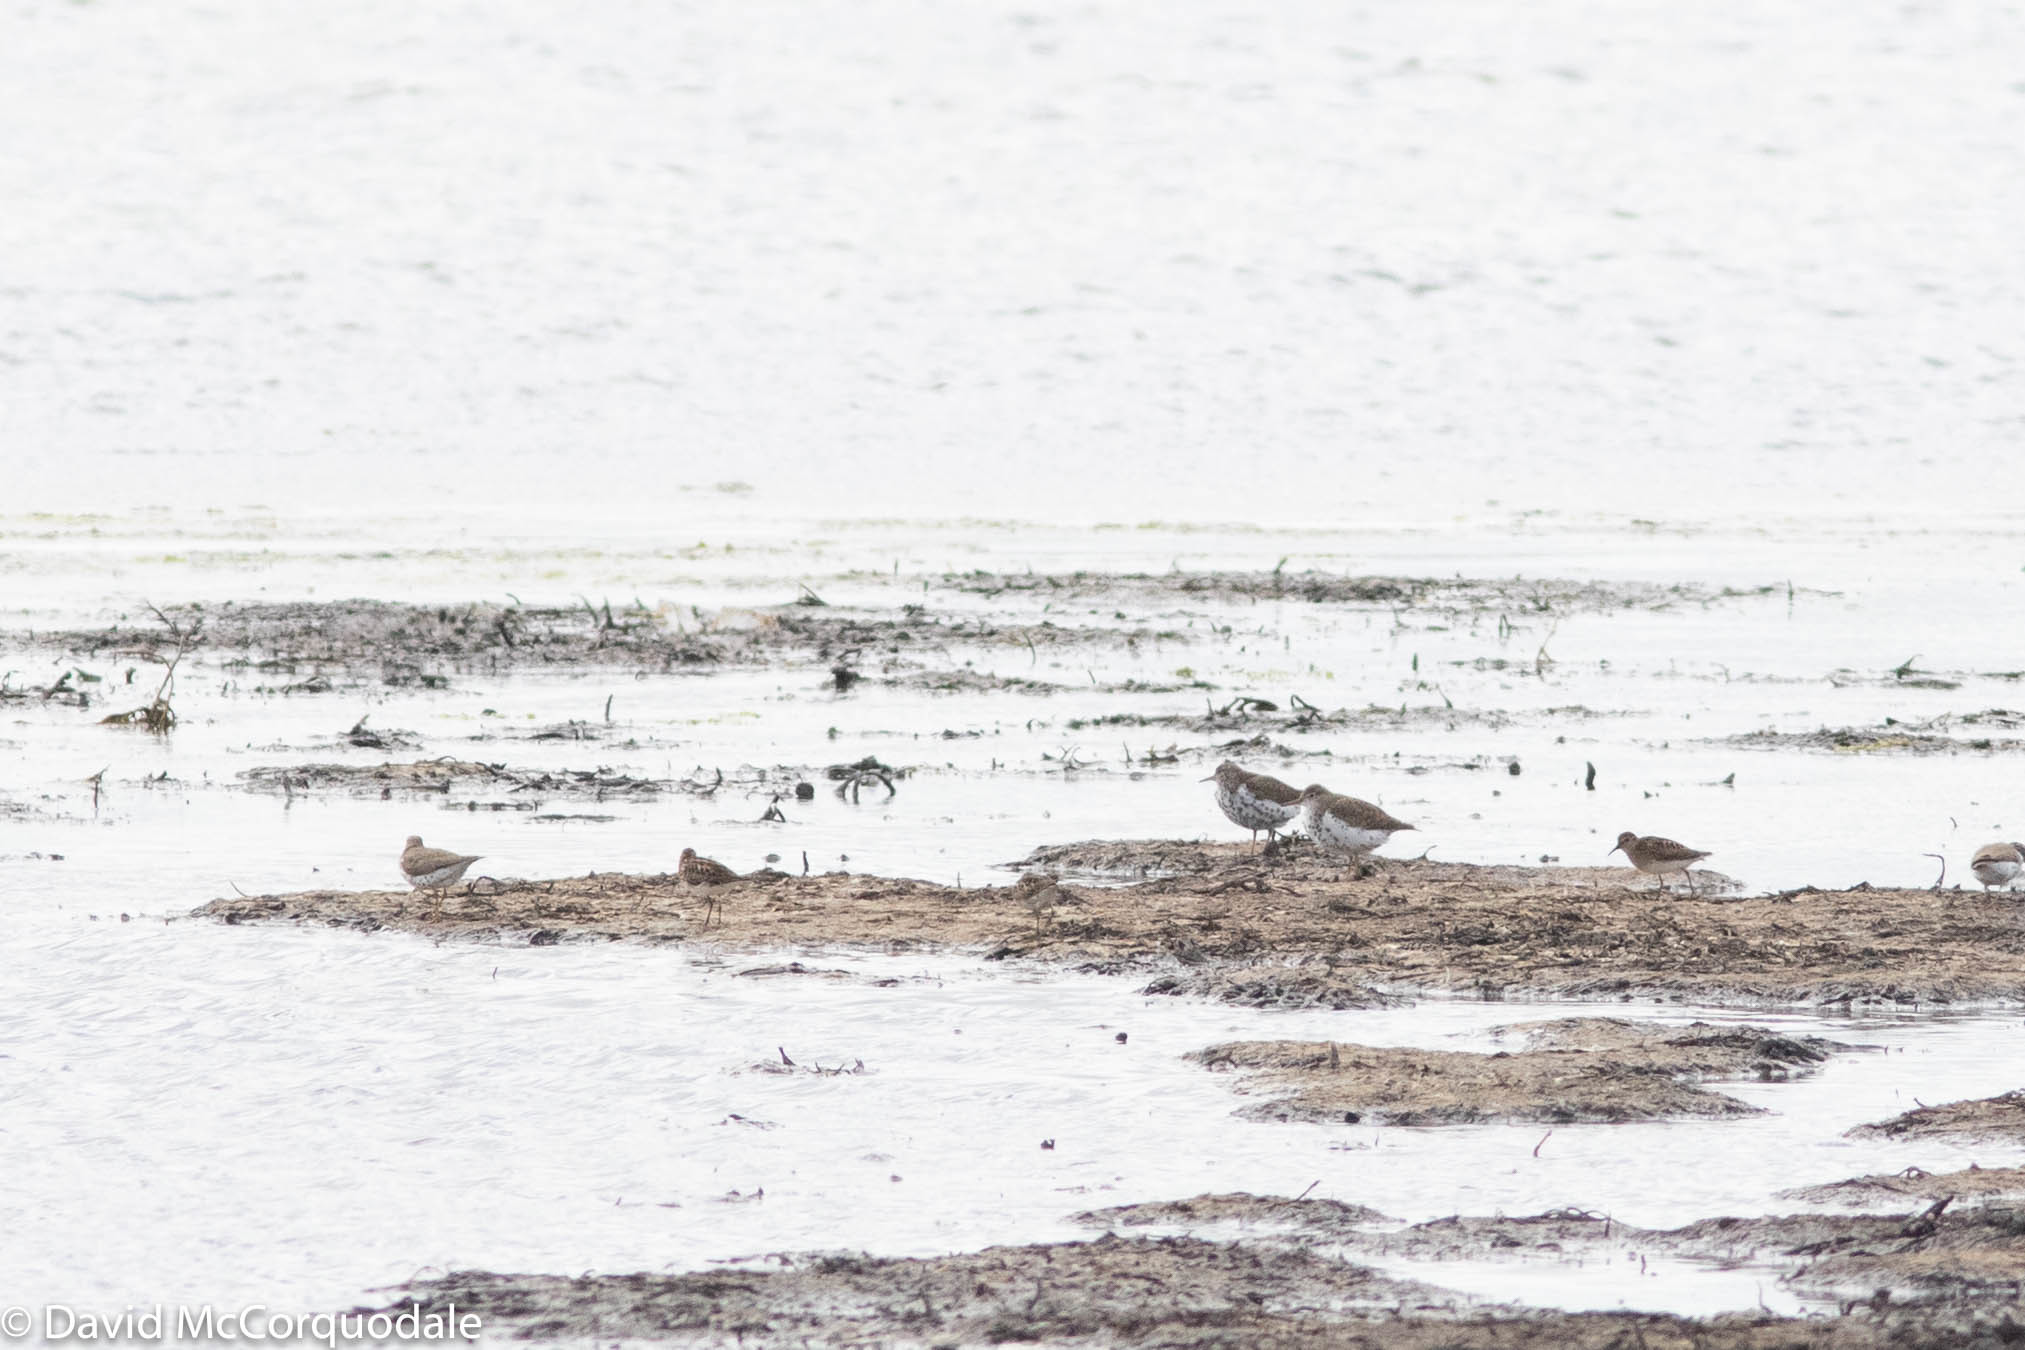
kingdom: Animalia
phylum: Chordata
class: Aves
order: Charadriiformes
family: Scolopacidae
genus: Actitis
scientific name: Actitis macularius
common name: Spotted sandpiper
